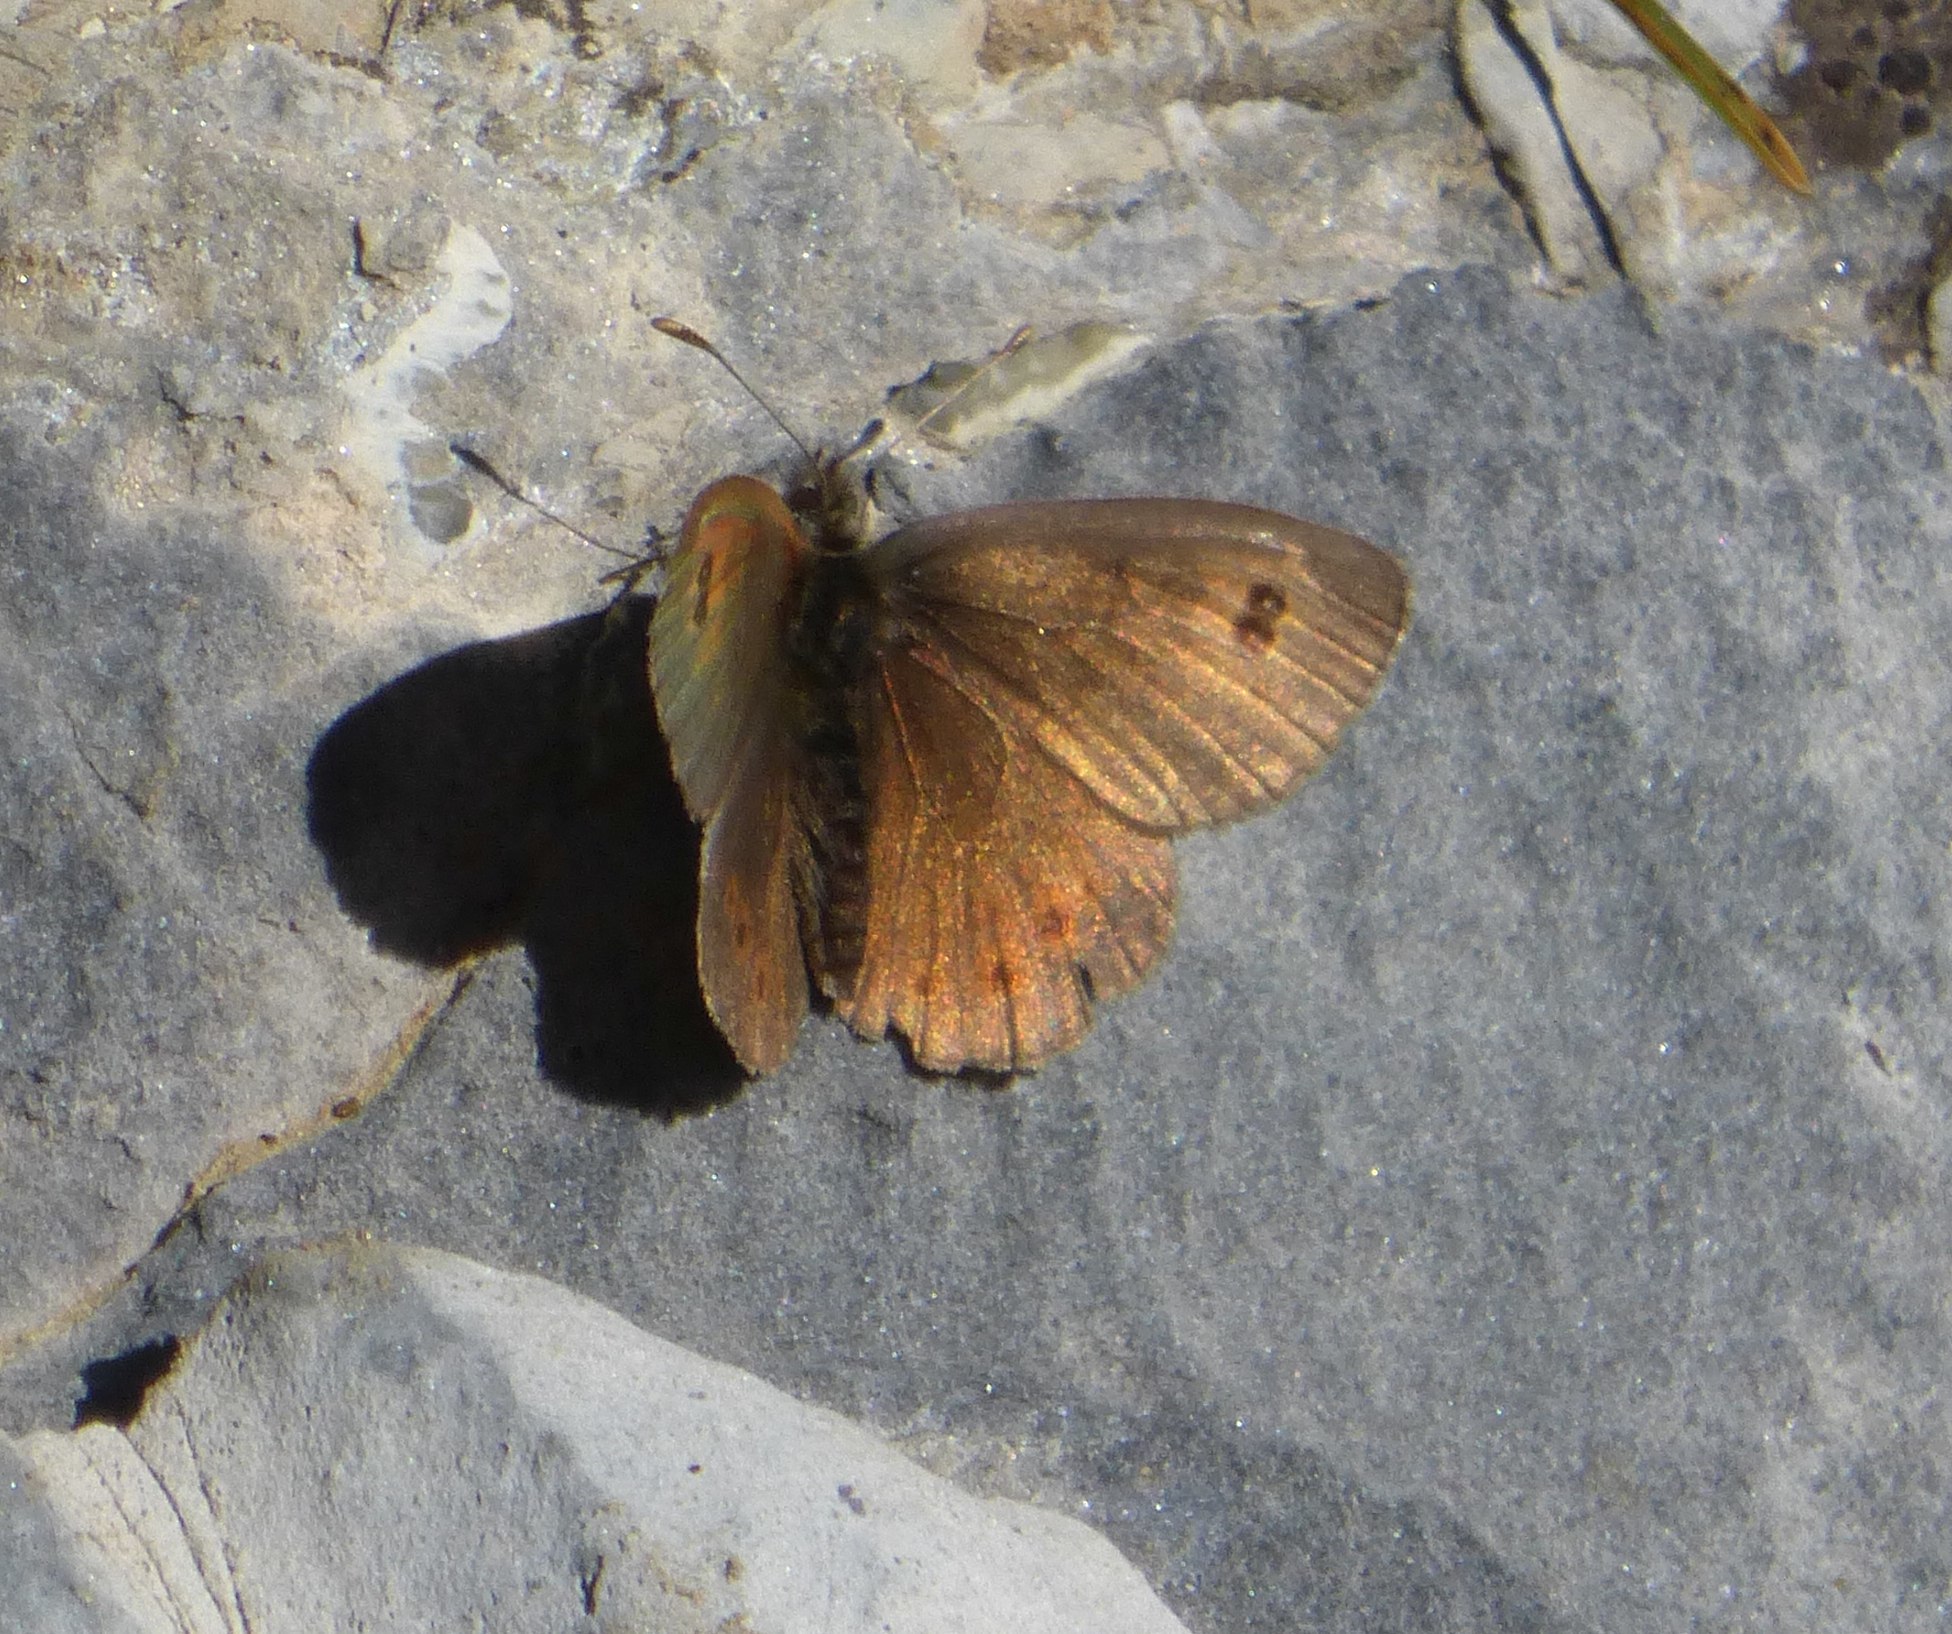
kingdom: Animalia
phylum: Arthropoda
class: Insecta
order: Lepidoptera
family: Nymphalidae
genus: Erebia
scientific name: Erebia cassioides
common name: Common brassy ringlet
